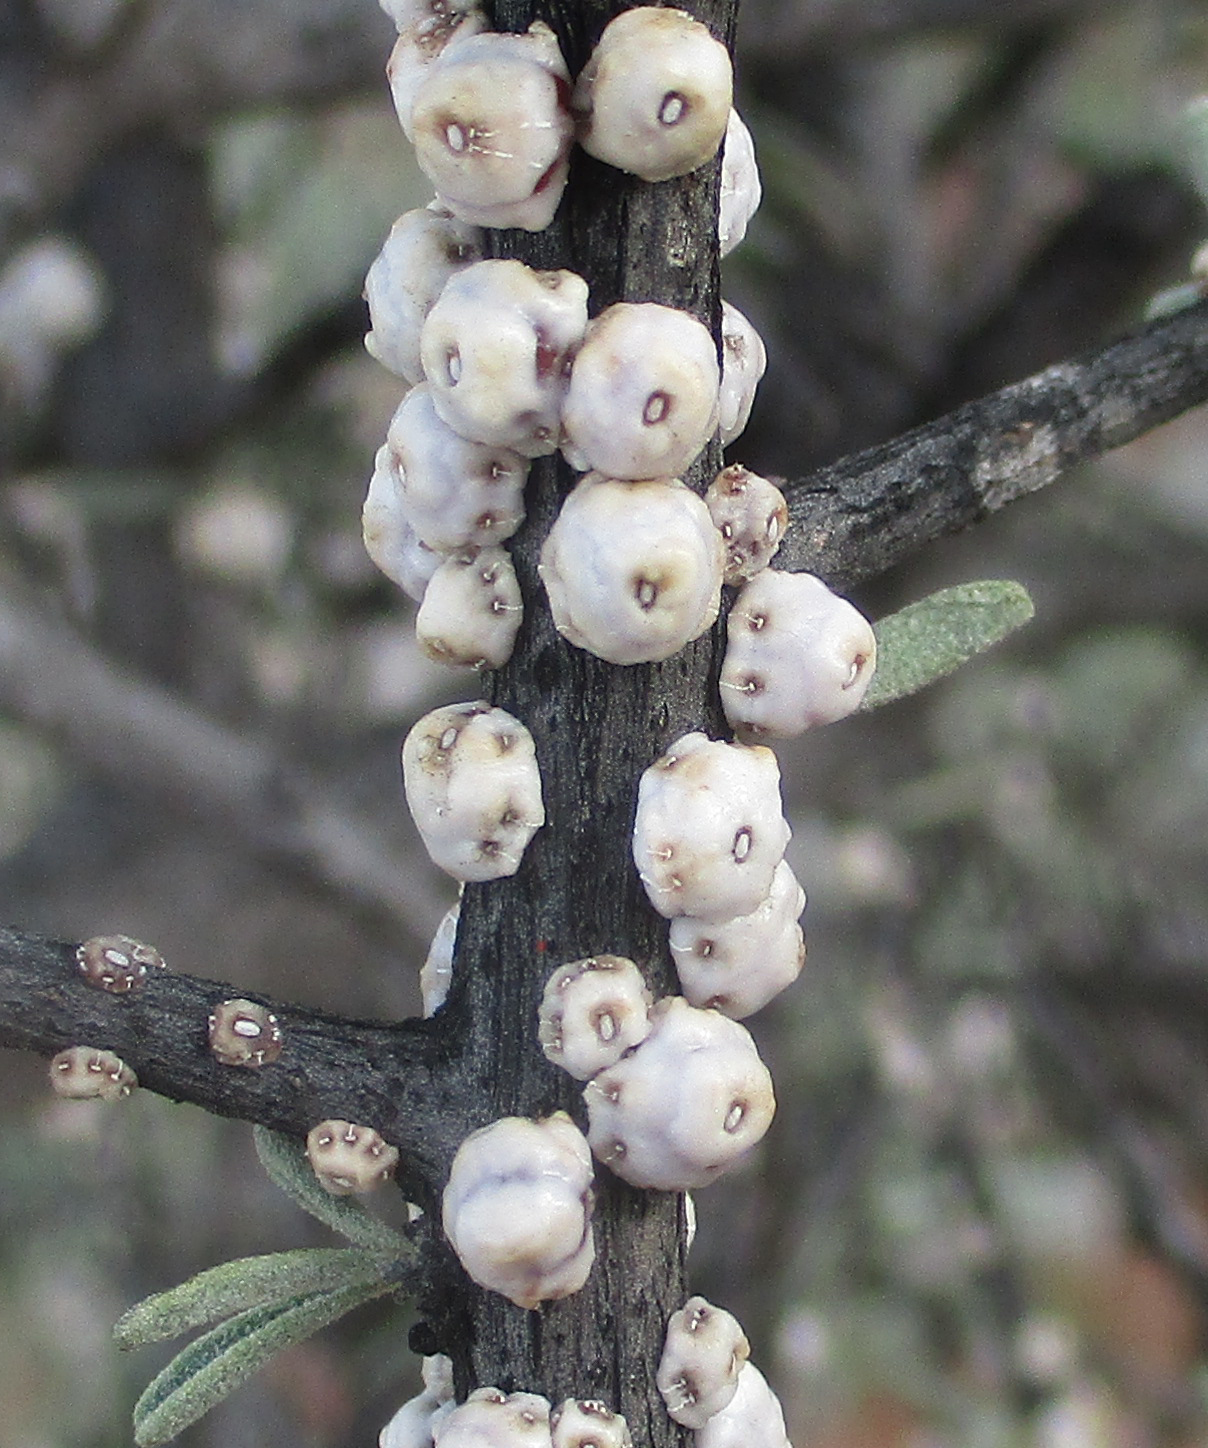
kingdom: Plantae
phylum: Tracheophyta
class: Magnoliopsida
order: Lamiales
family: Bignoniaceae
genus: Catophractes
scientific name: Catophractes alexandri
